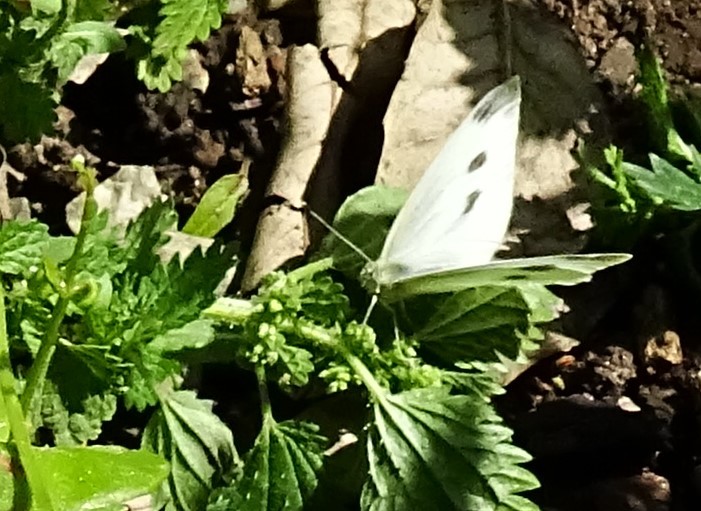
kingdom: Animalia
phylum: Arthropoda
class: Insecta
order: Lepidoptera
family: Pieridae
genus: Pieris
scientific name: Pieris rapae
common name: Small white
